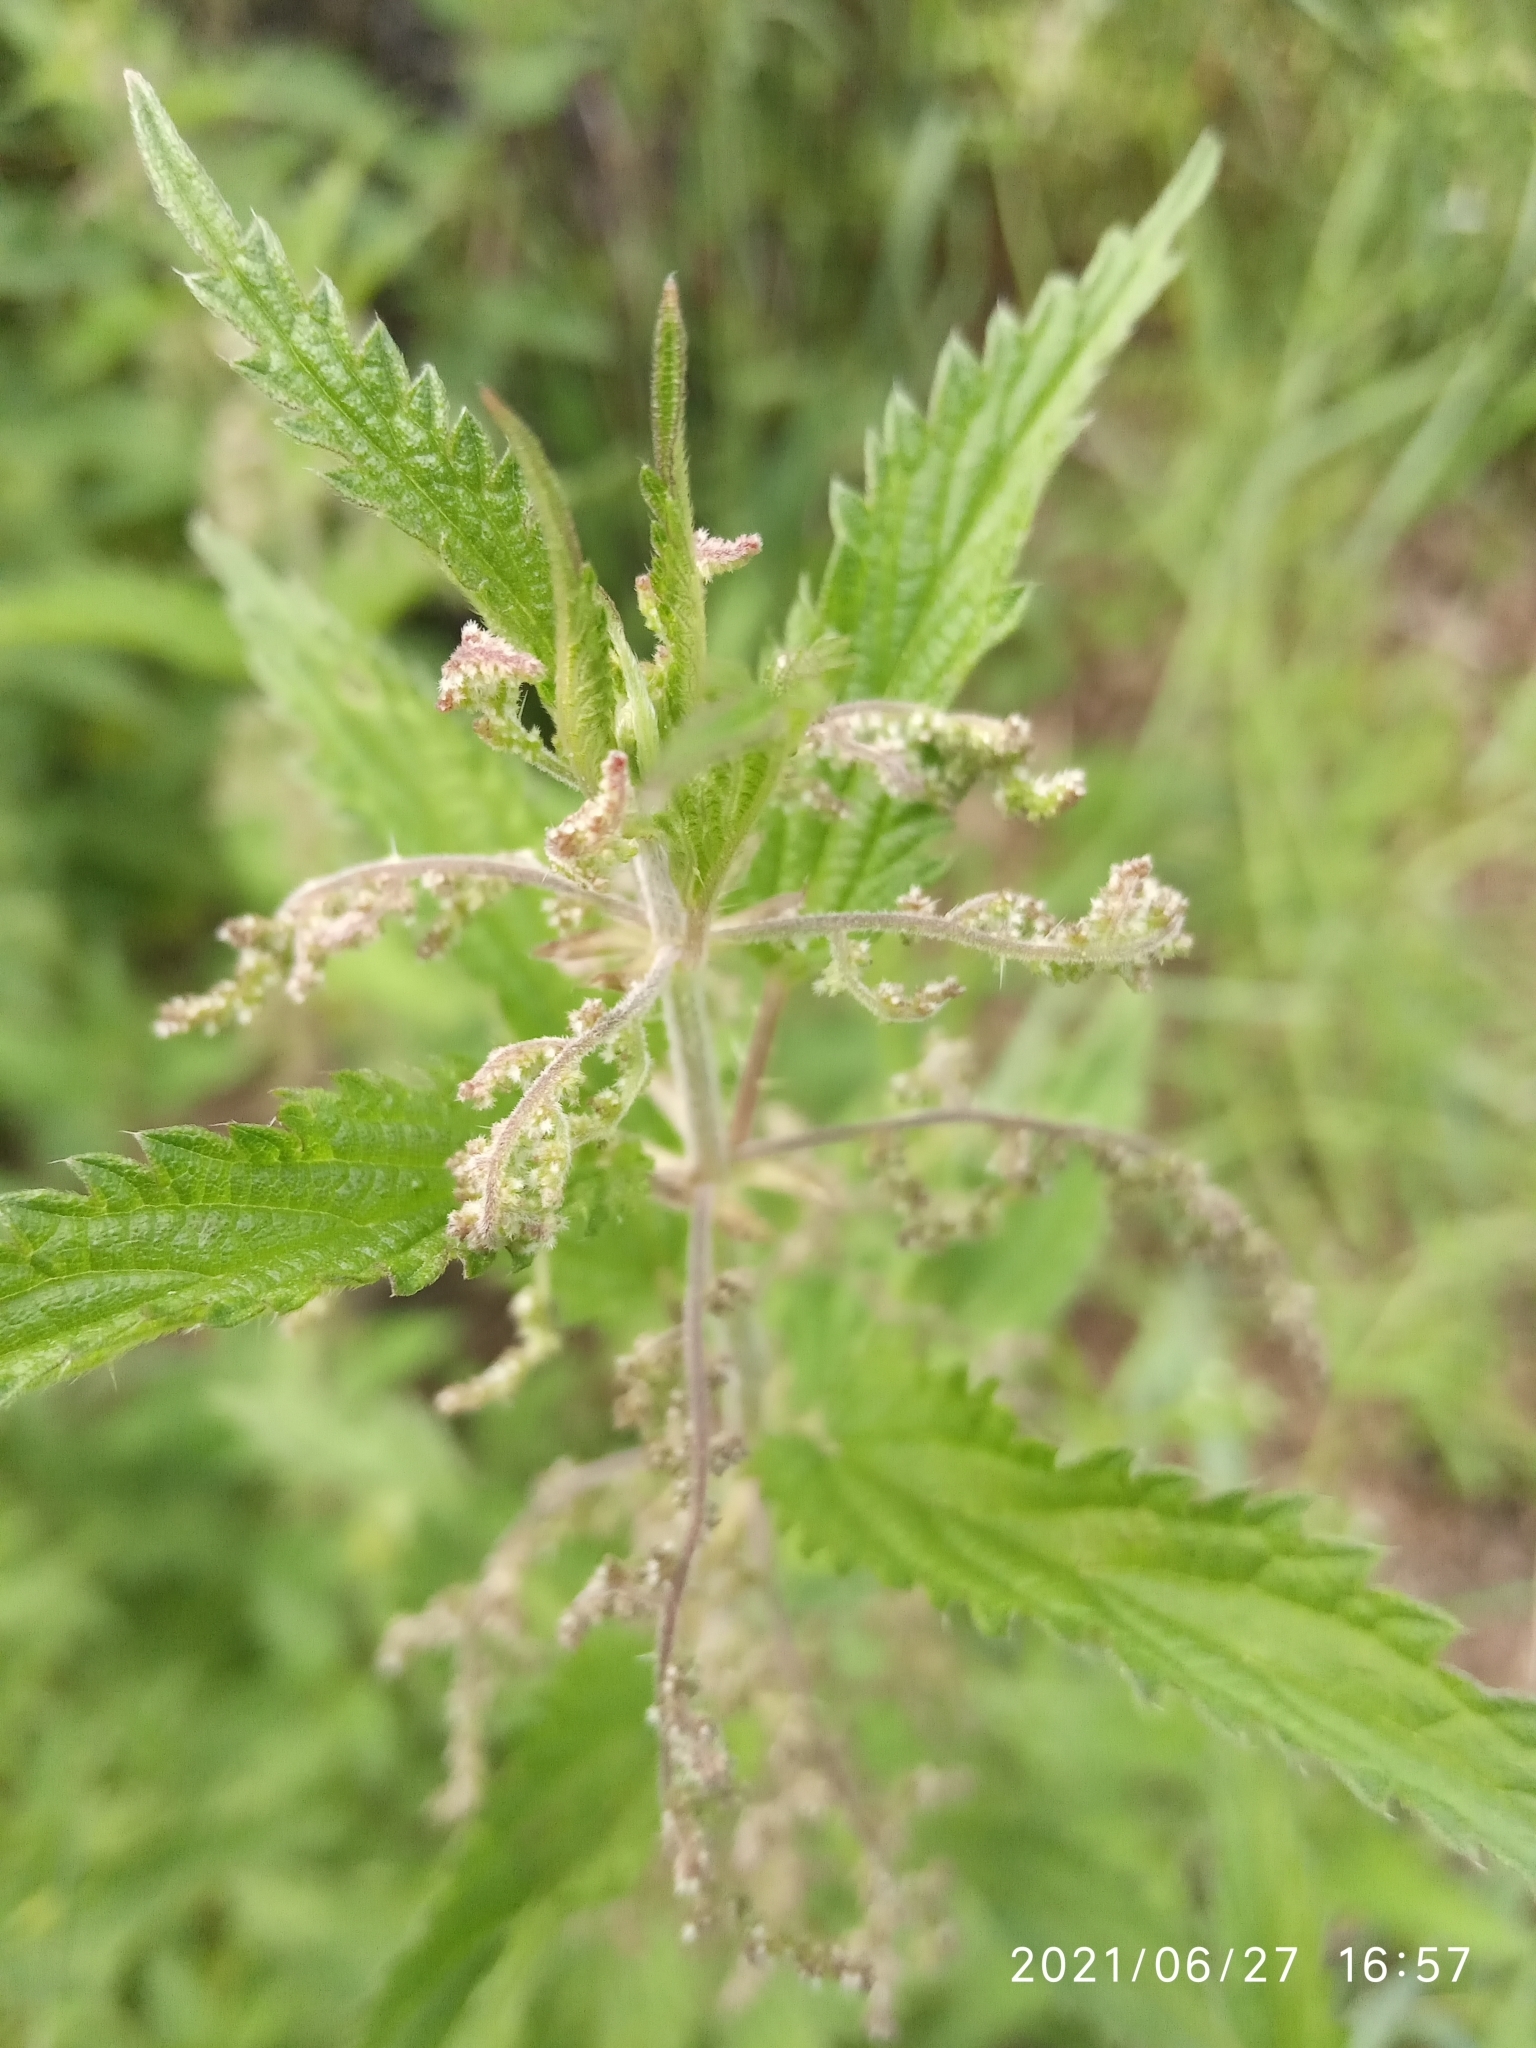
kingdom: Plantae
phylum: Tracheophyta
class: Magnoliopsida
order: Rosales
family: Urticaceae
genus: Urtica
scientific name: Urtica dioica
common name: Common nettle
